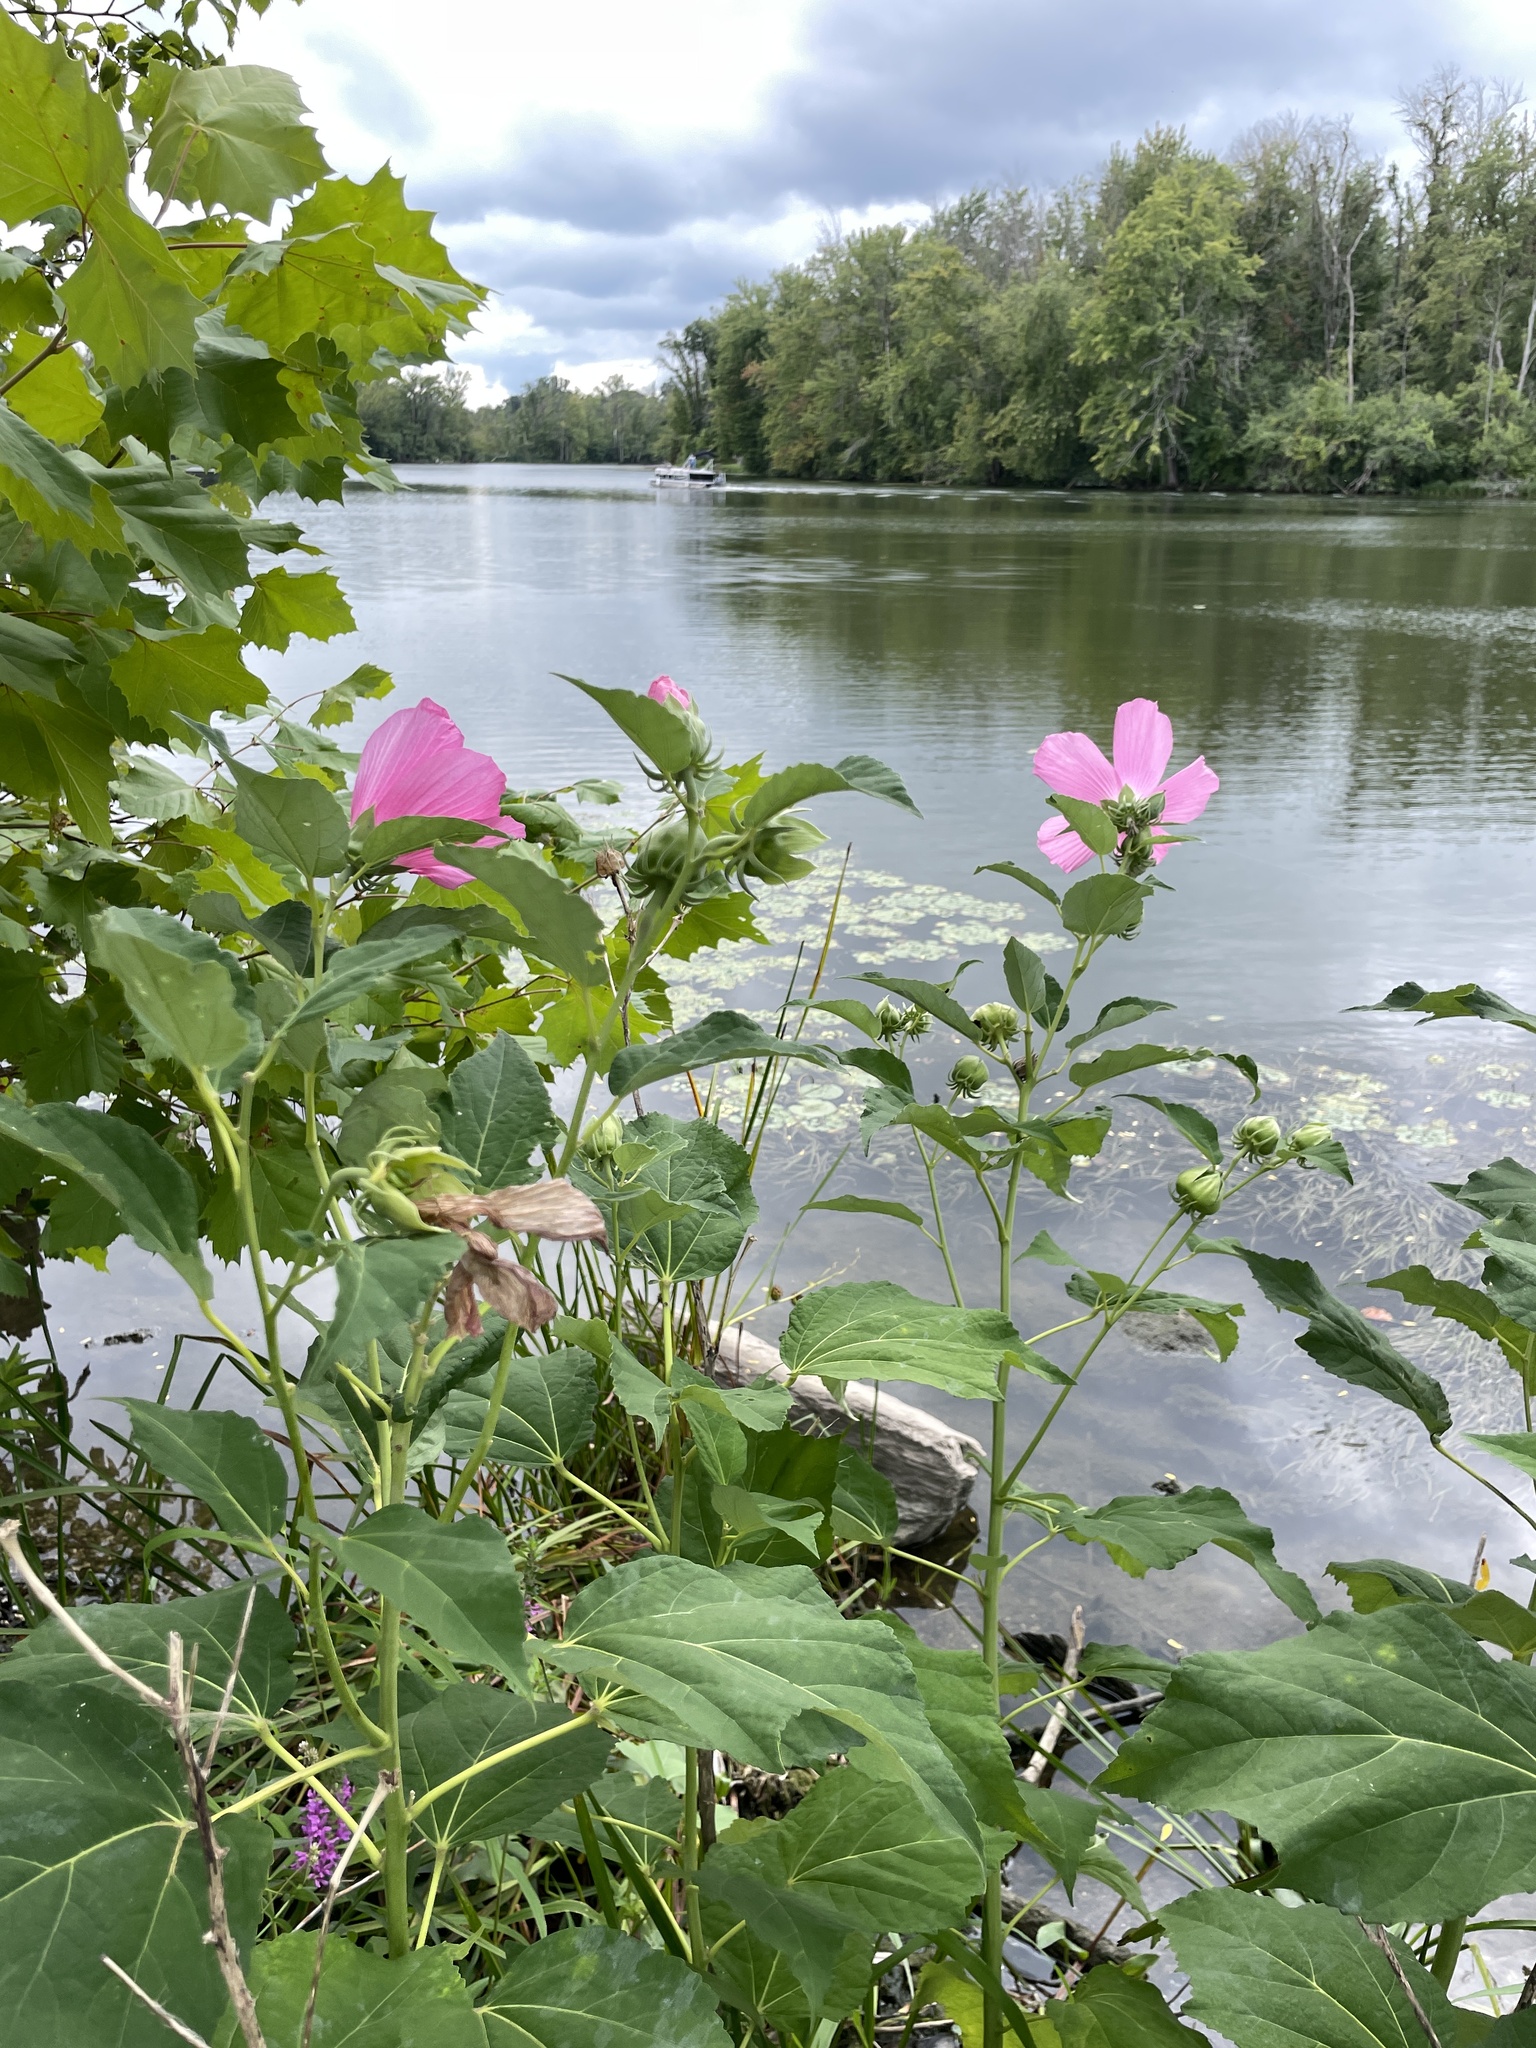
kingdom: Plantae
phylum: Tracheophyta
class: Magnoliopsida
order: Malvales
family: Malvaceae
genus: Hibiscus
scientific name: Hibiscus moscheutos
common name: Common rose-mallow
